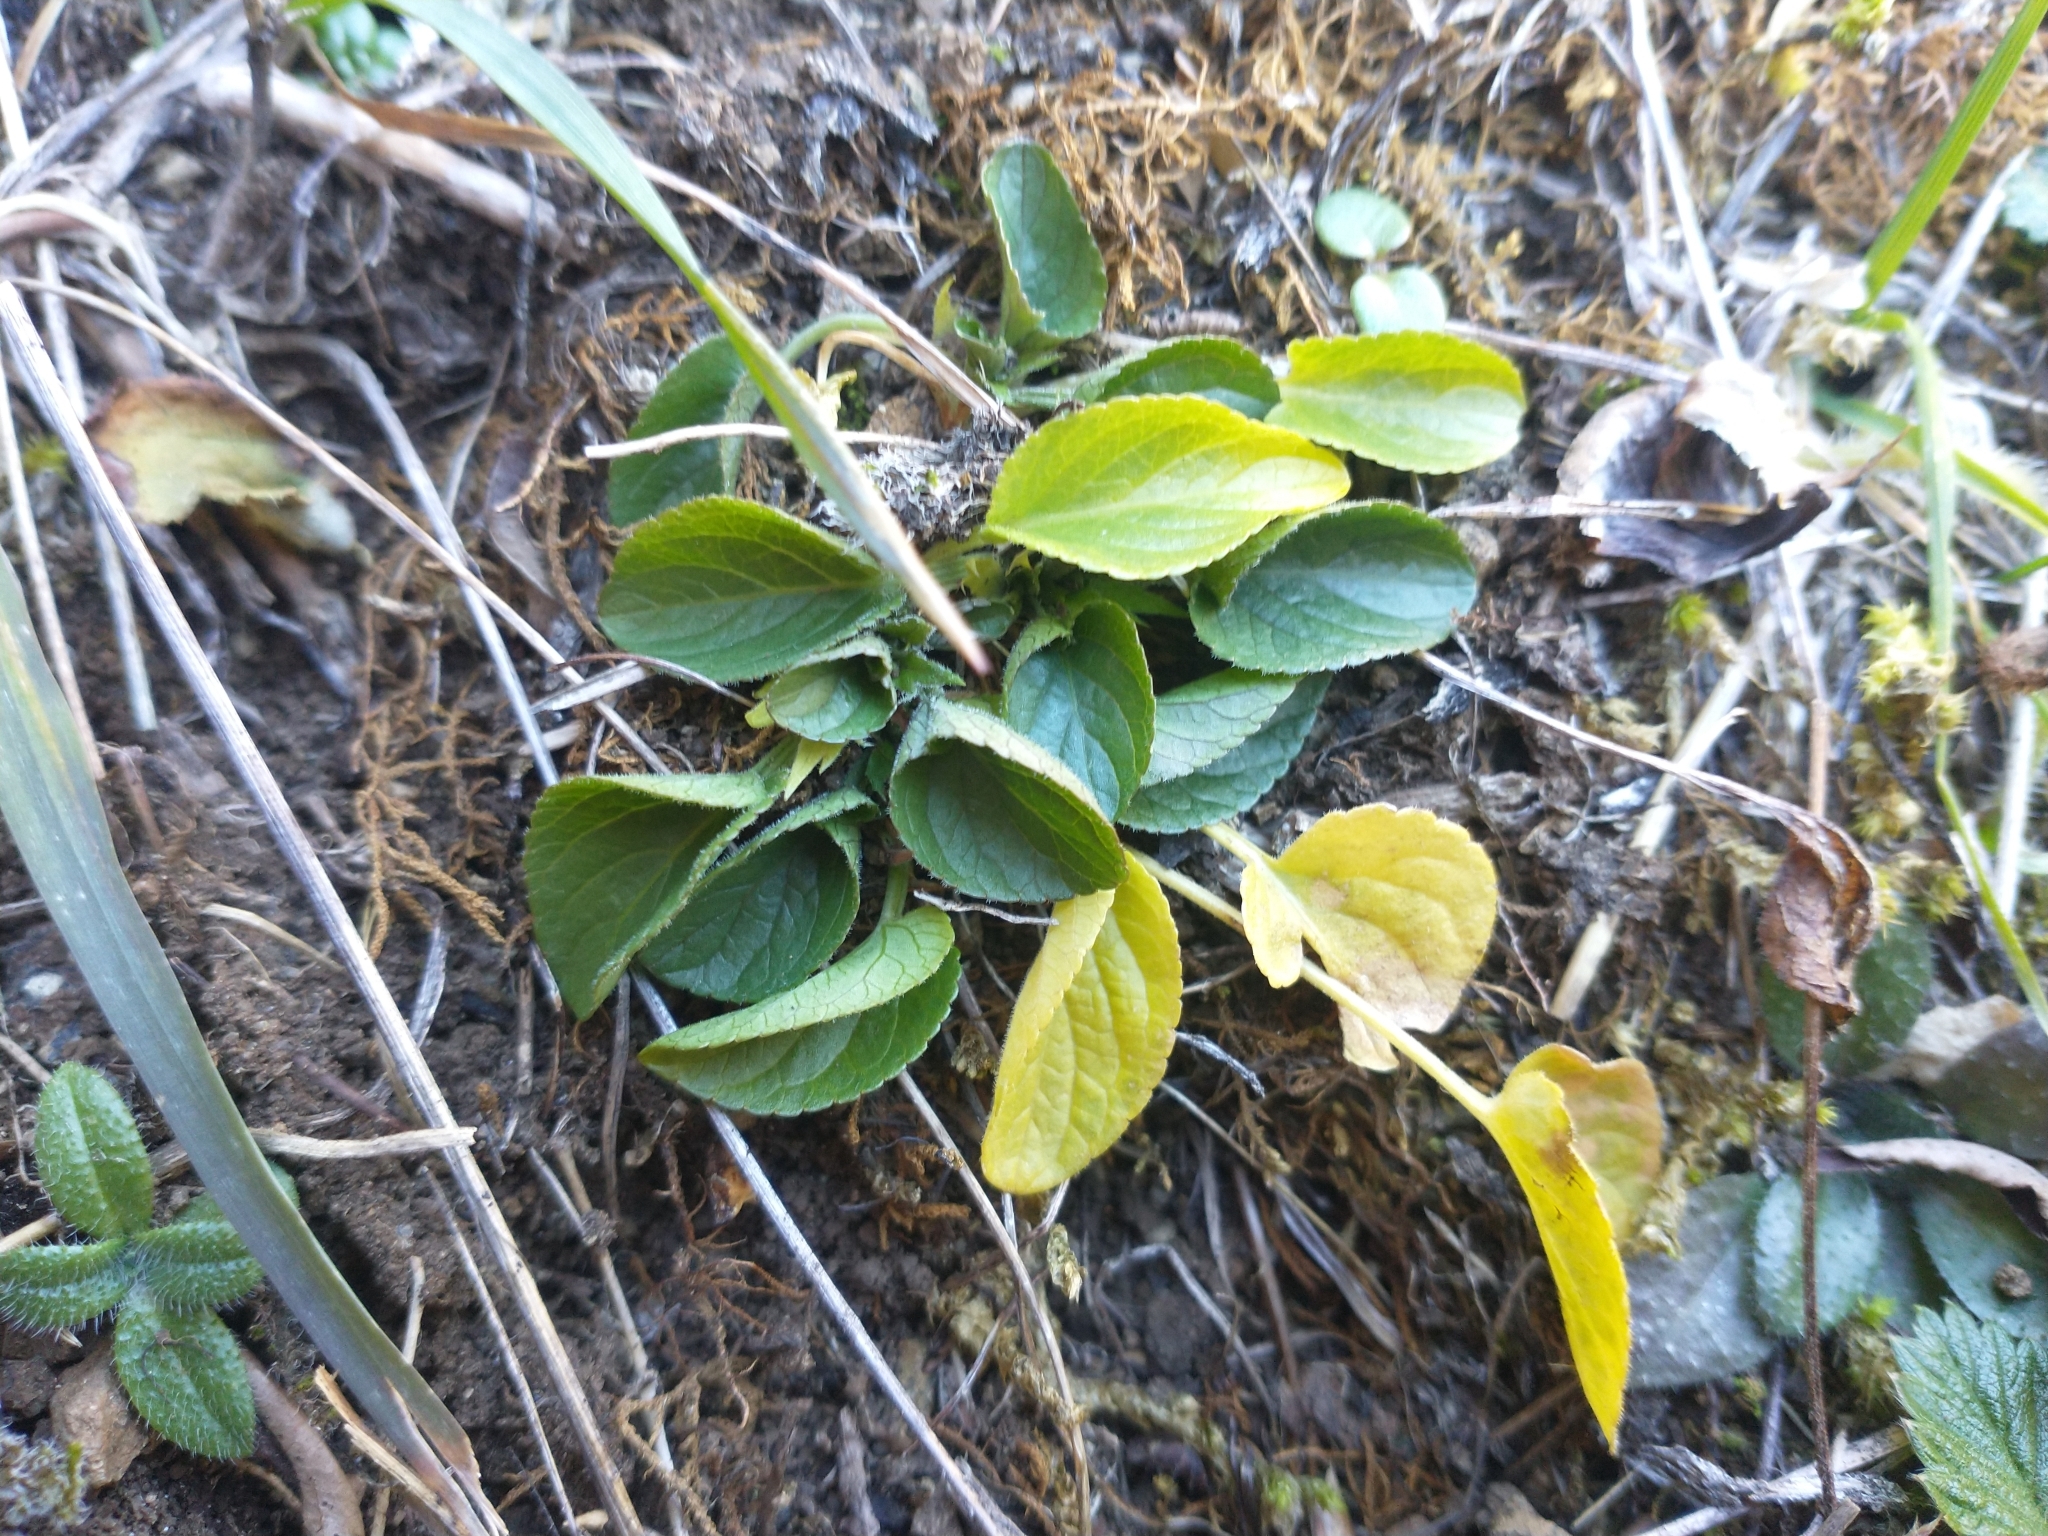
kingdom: Plantae
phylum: Tracheophyta
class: Magnoliopsida
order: Malpighiales
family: Violaceae
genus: Viola
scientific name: Viola adunca
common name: Sand violet
